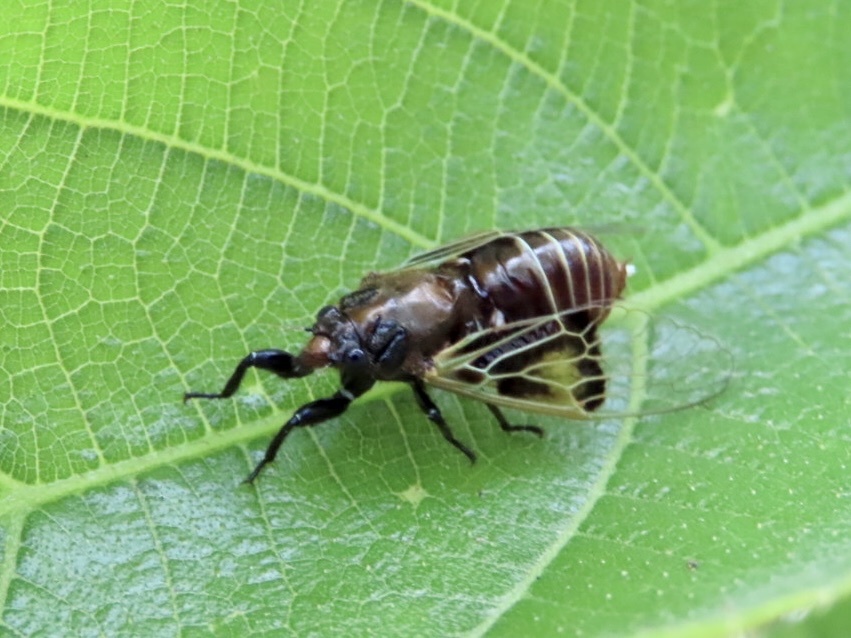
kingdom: Animalia
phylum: Arthropoda
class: Insecta
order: Hemiptera
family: Cicadidae
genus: Mogannia
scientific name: Mogannia nasalis
